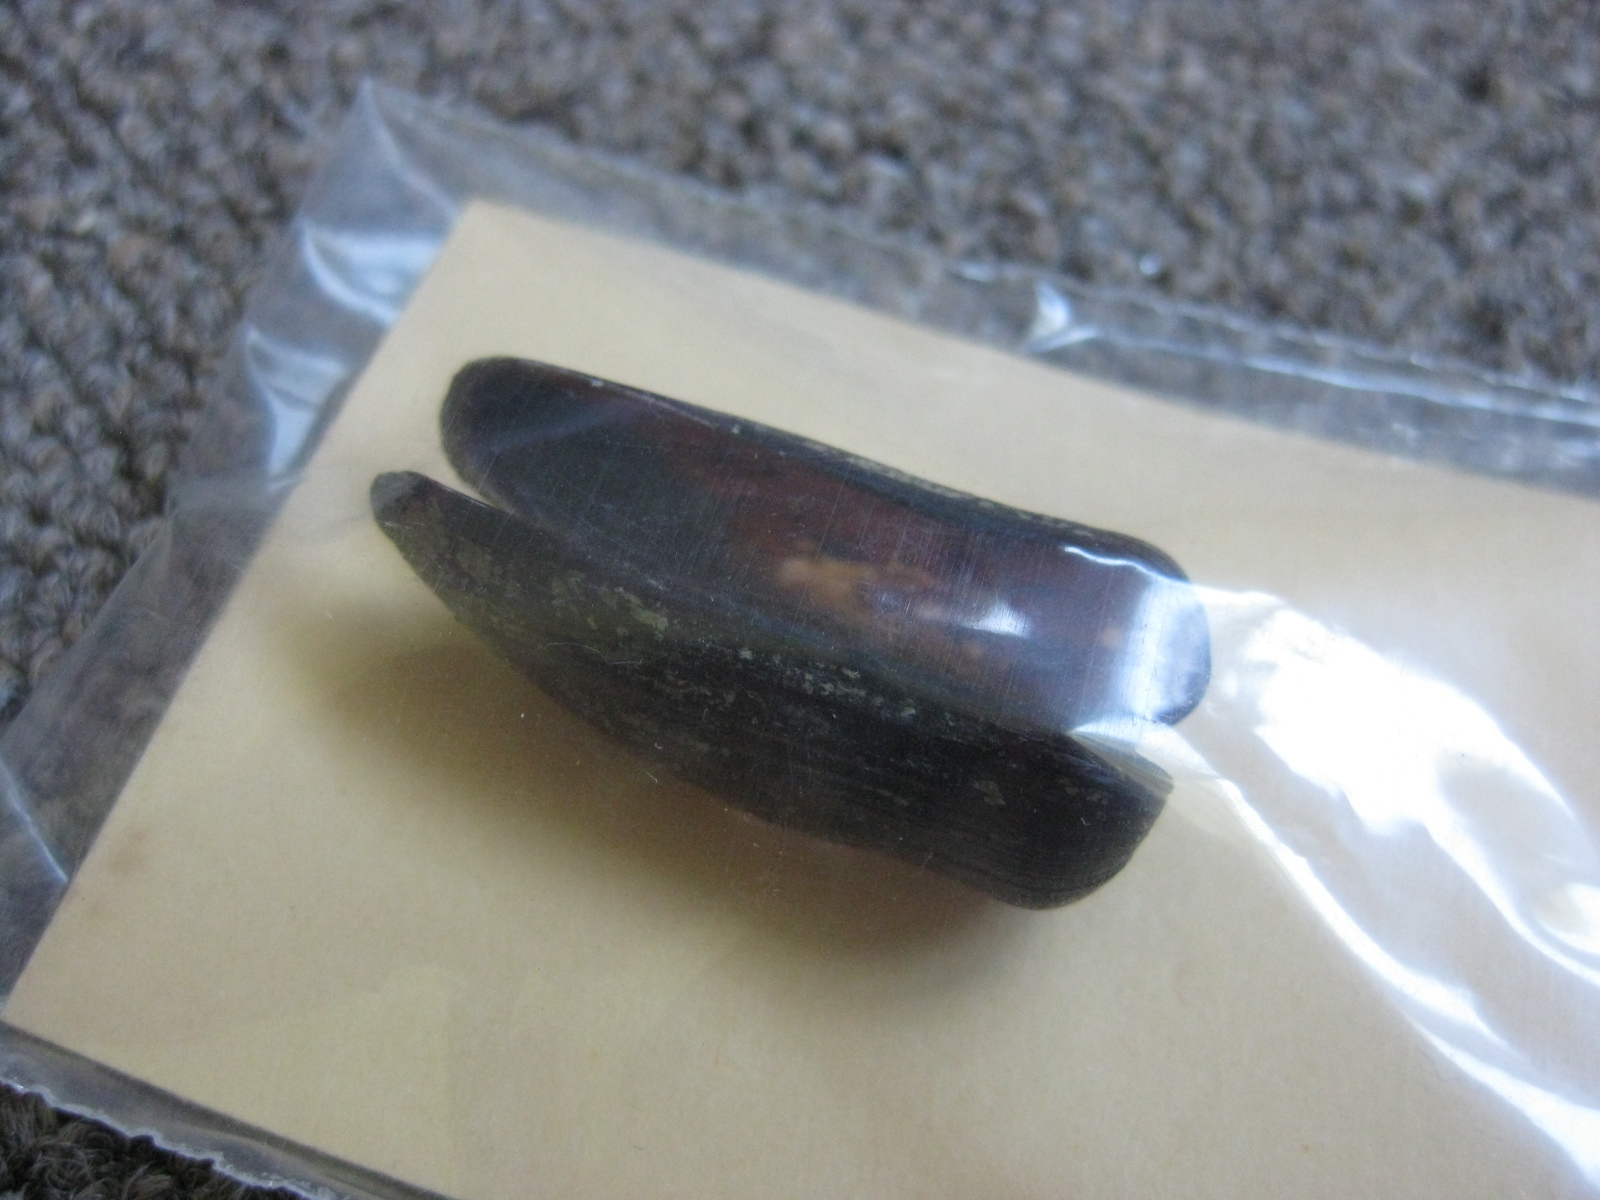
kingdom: Animalia
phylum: Mollusca
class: Bivalvia
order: Mytilida
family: Mytilidae
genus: Zelithophaga
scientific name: Zelithophaga truncata
